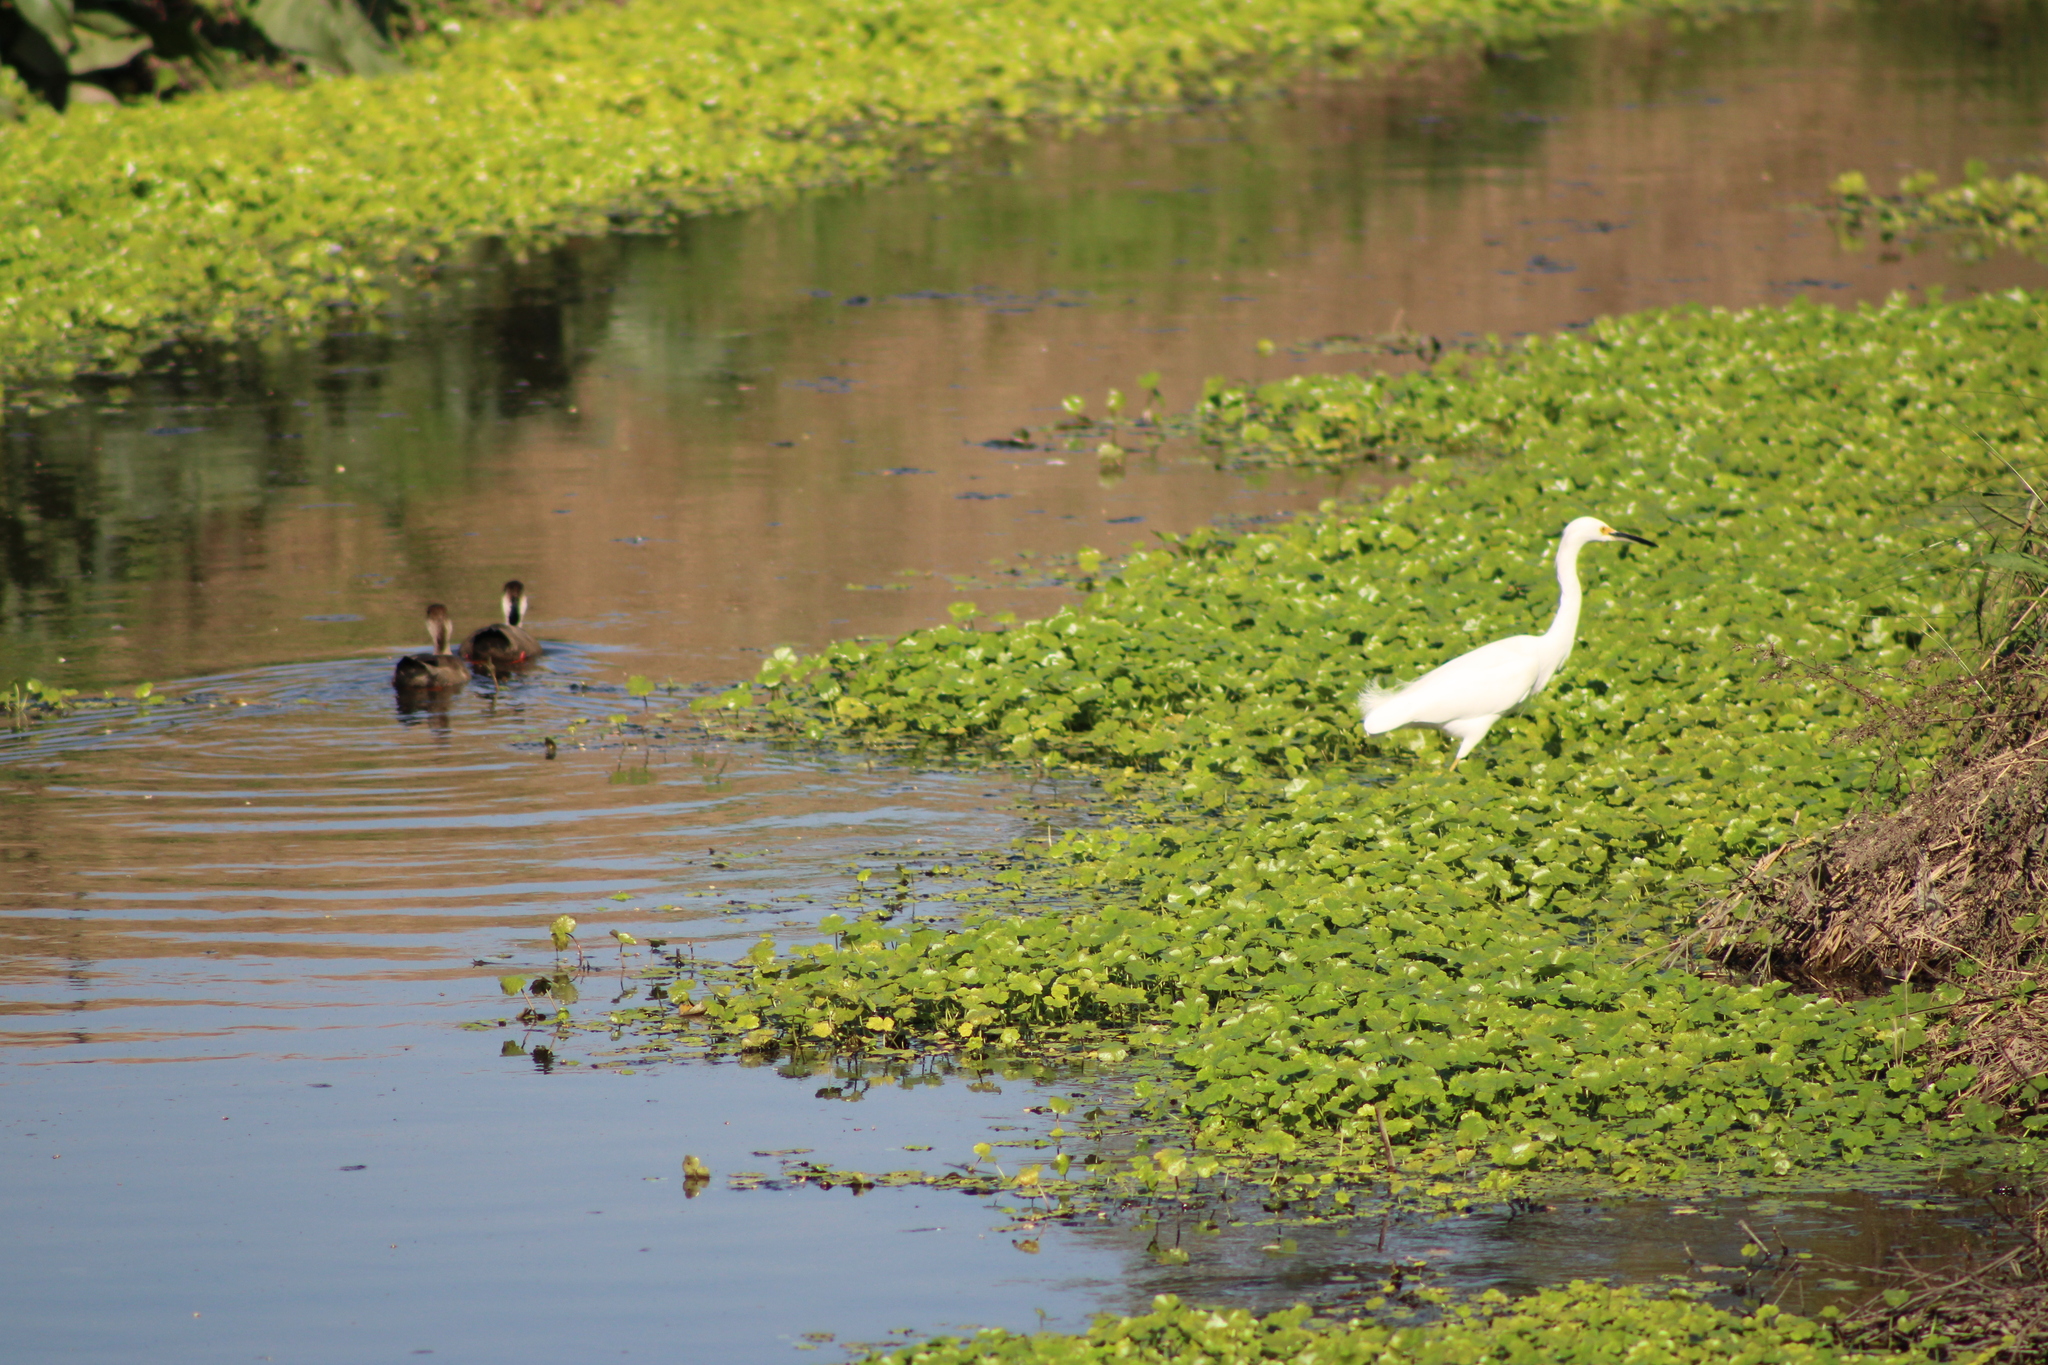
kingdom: Animalia
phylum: Chordata
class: Aves
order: Pelecaniformes
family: Ardeidae
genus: Egretta
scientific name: Egretta thula
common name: Snowy egret
